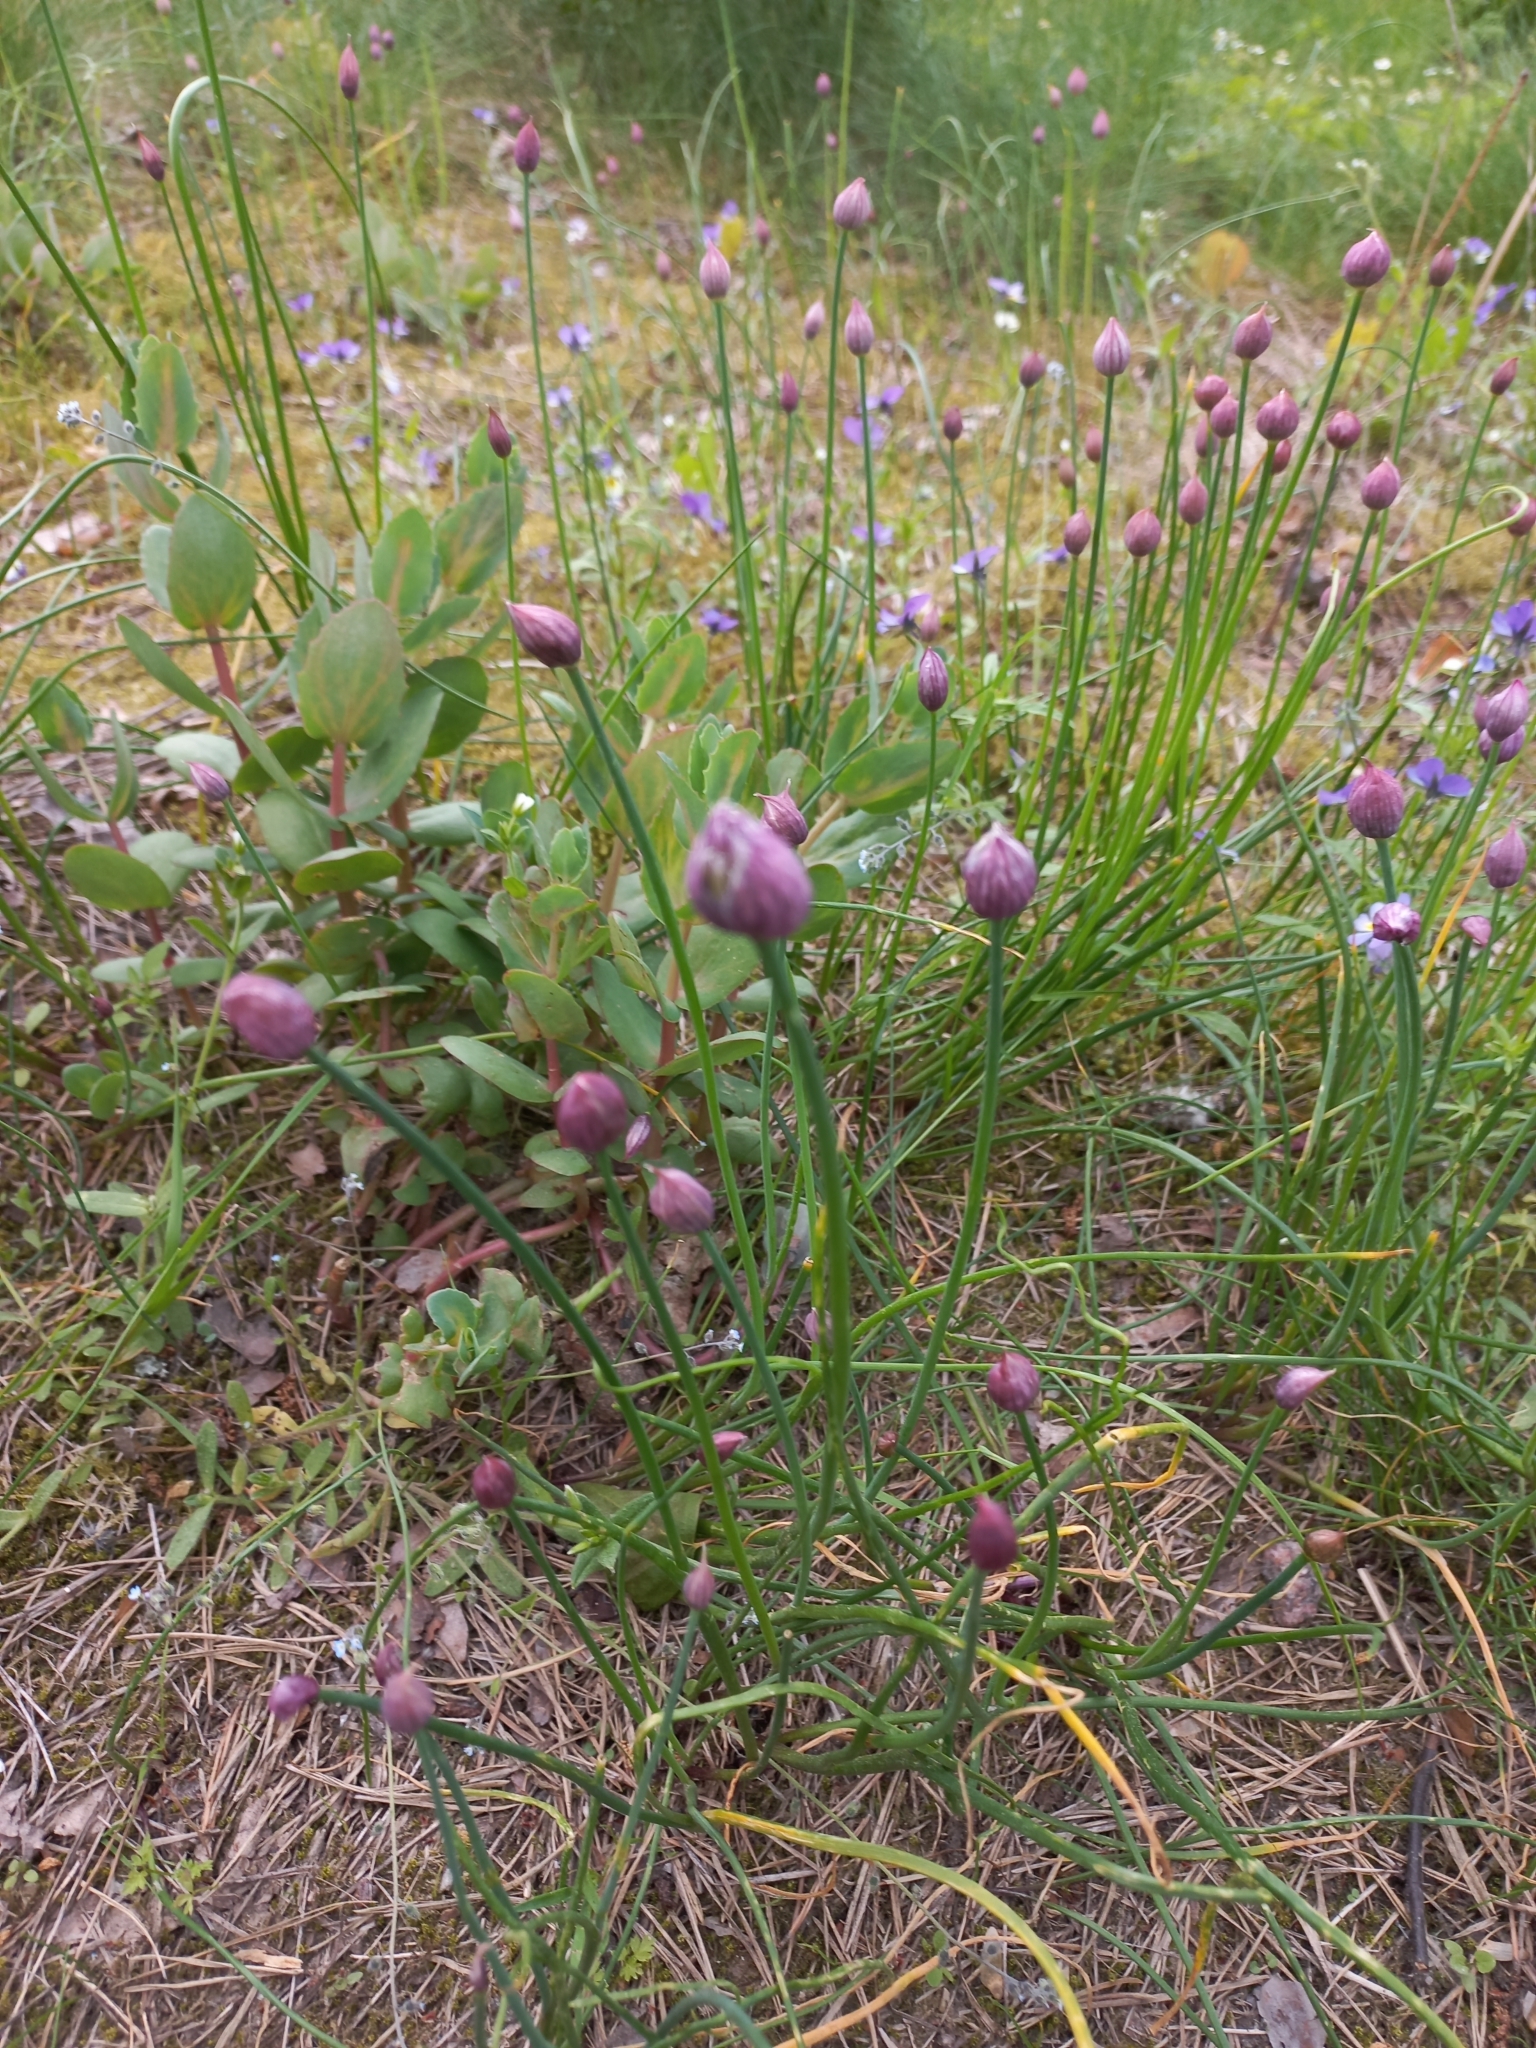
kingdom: Plantae
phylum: Tracheophyta
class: Liliopsida
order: Asparagales
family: Amaryllidaceae
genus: Allium
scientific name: Allium schoenoprasum
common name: Chives
